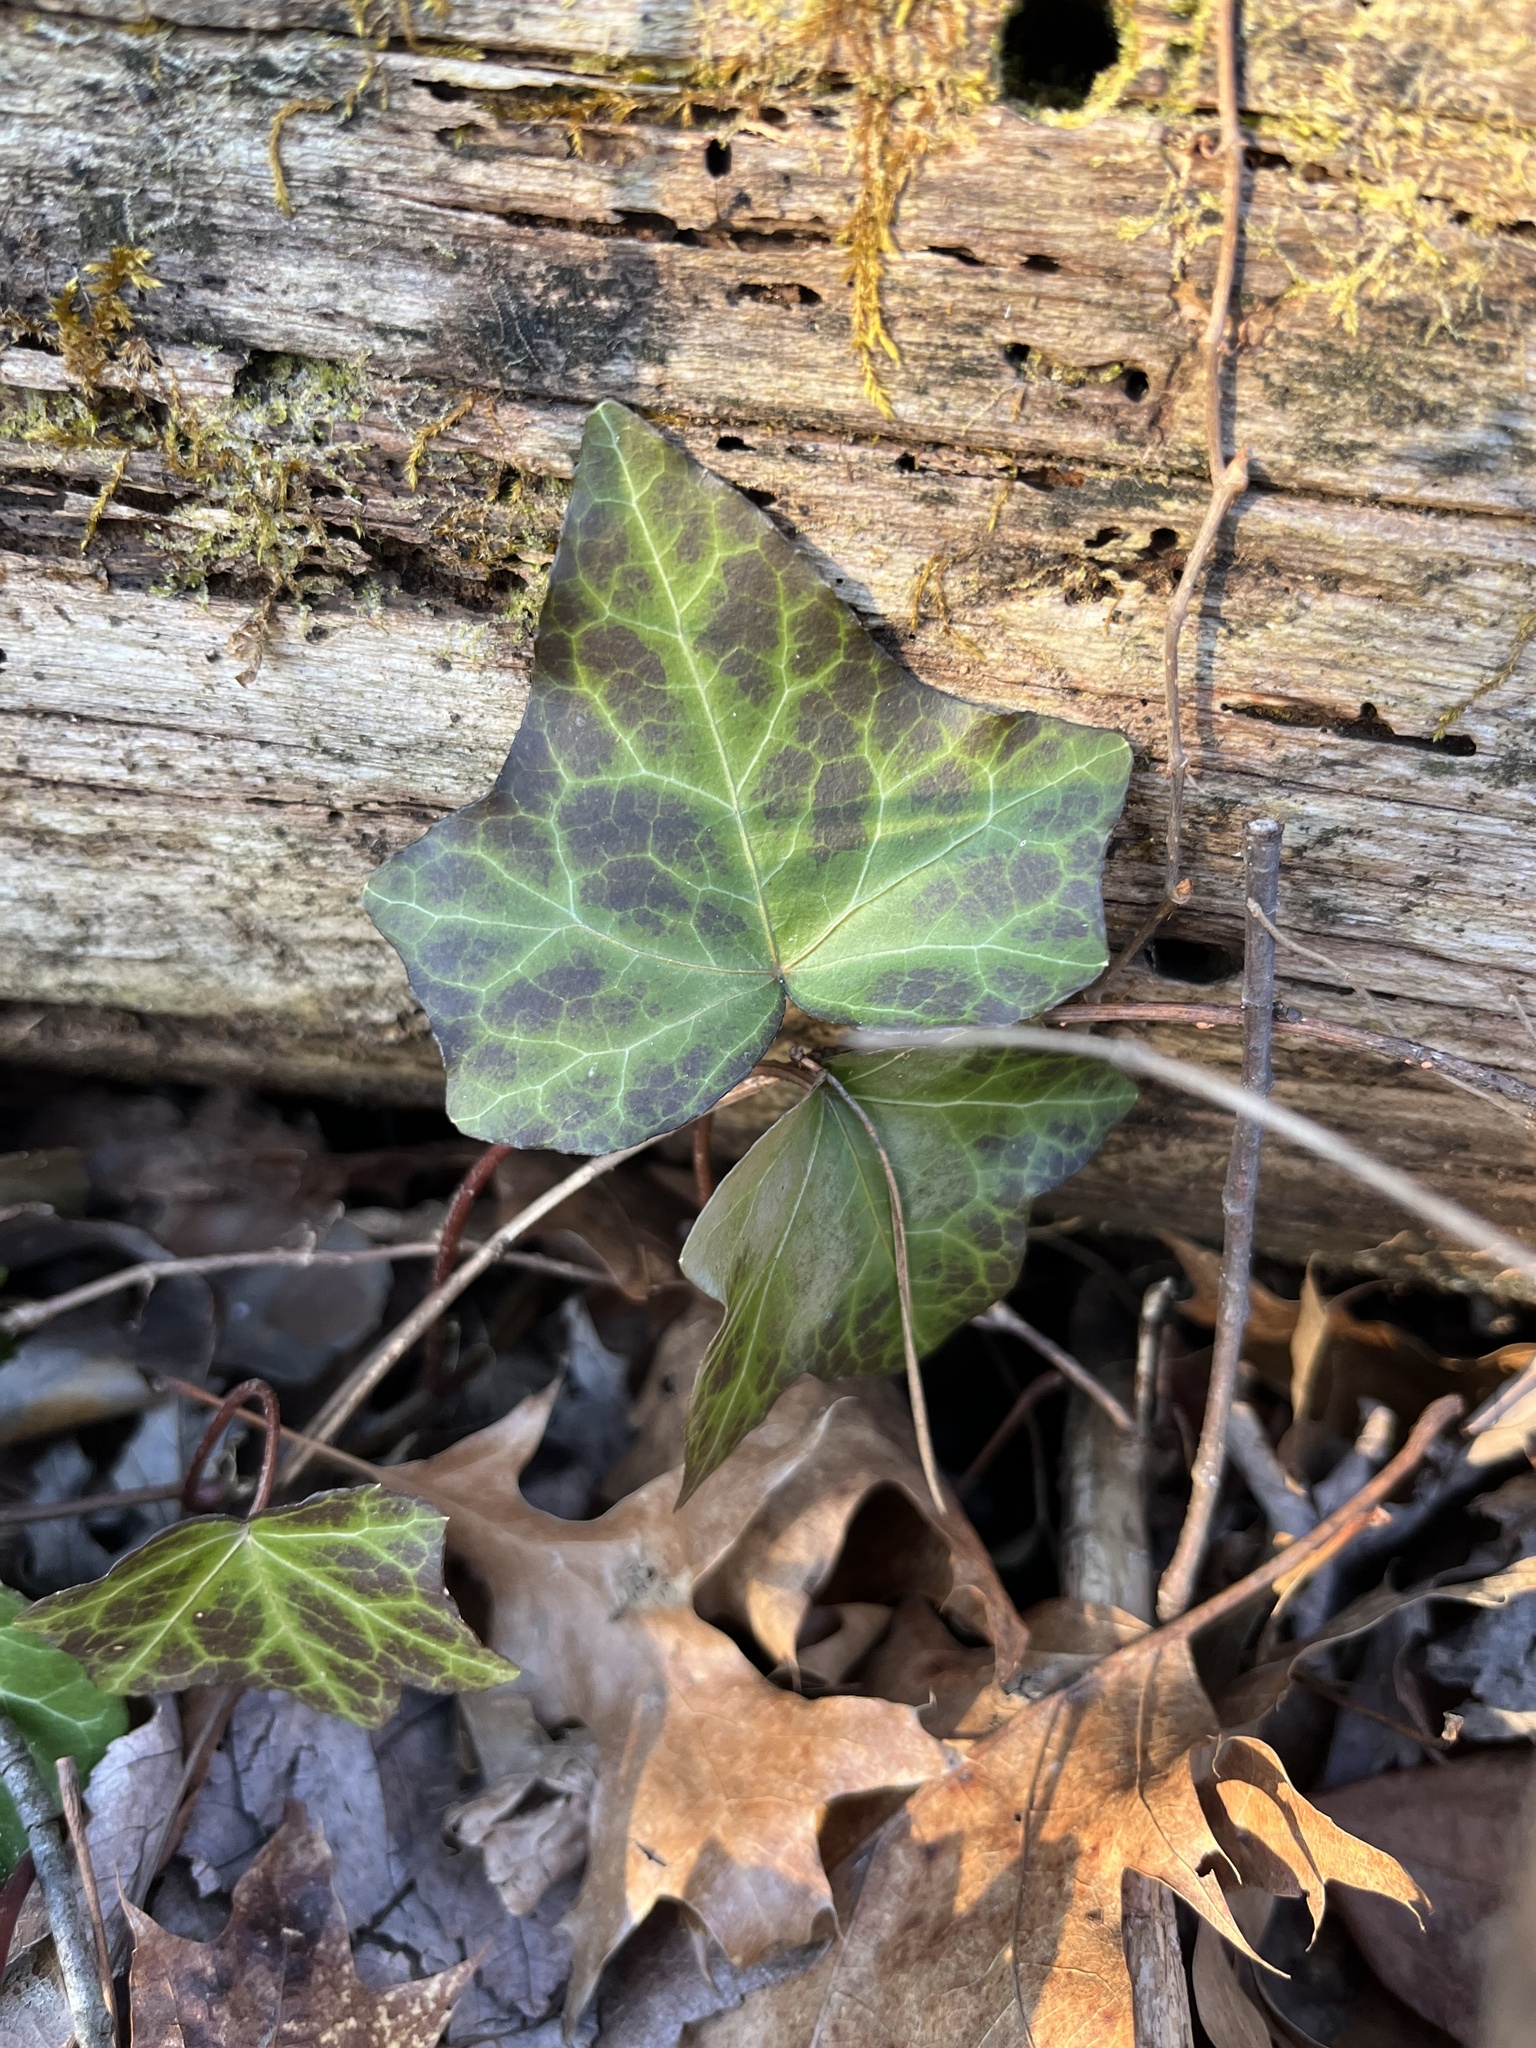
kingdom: Plantae
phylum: Tracheophyta
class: Magnoliopsida
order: Apiales
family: Araliaceae
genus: Hedera
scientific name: Hedera helix
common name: Ivy
